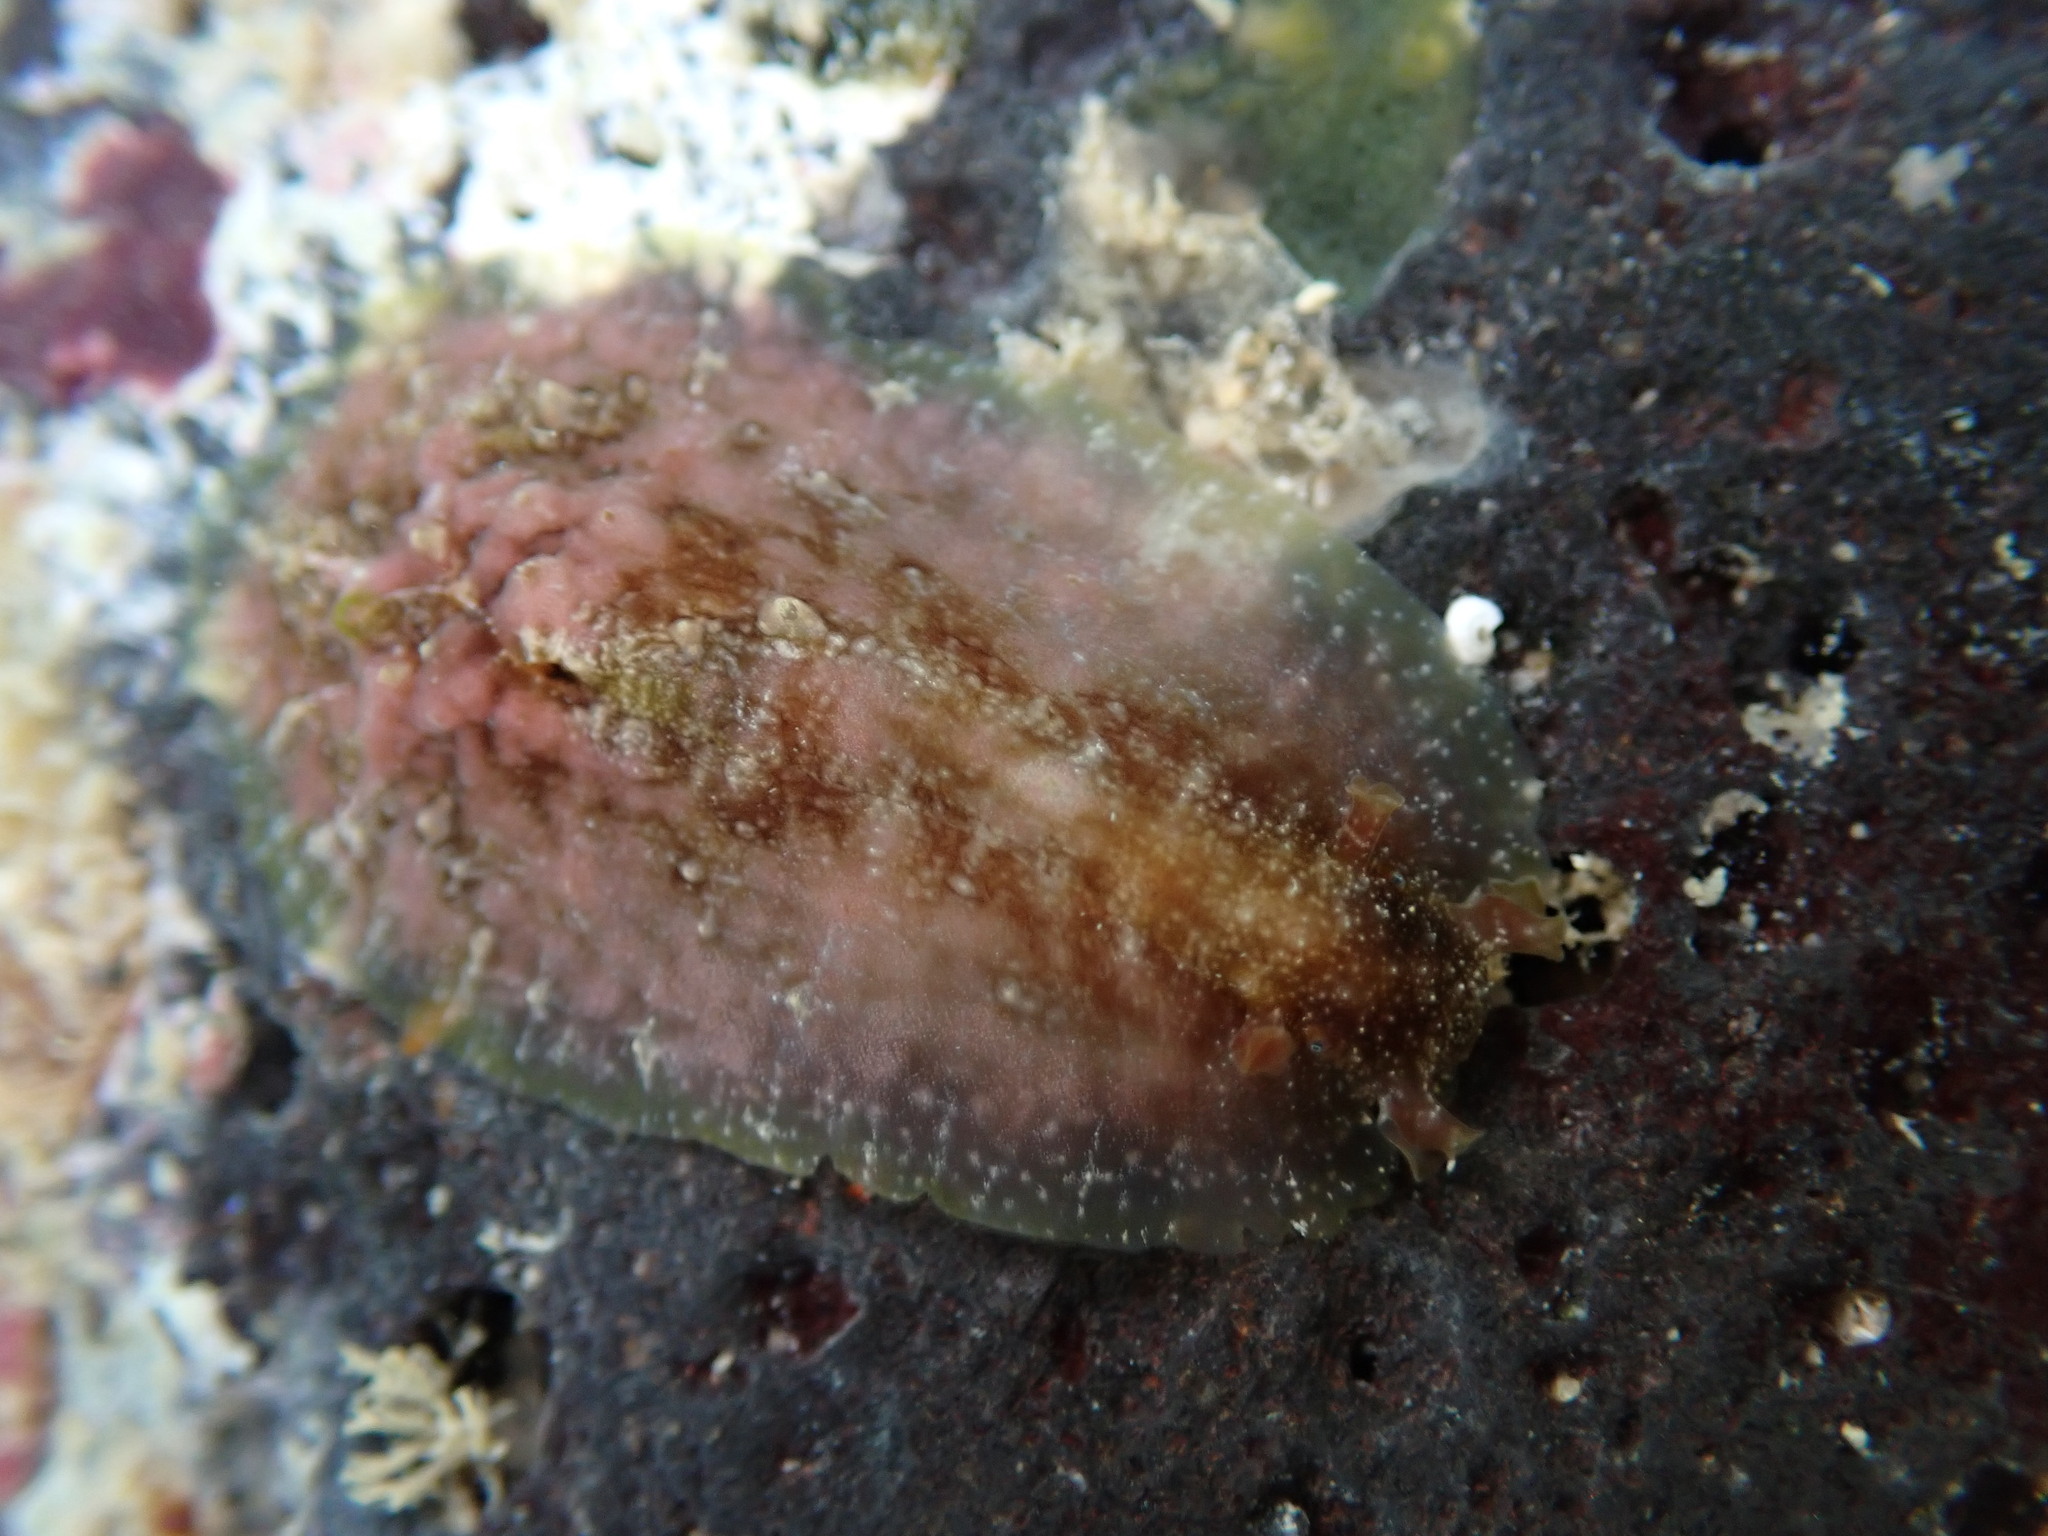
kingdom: Animalia
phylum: Mollusca
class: Gastropoda
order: Aplysiida
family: Aplysiidae
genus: Dolabrifera
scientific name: Dolabrifera dolabrifera
